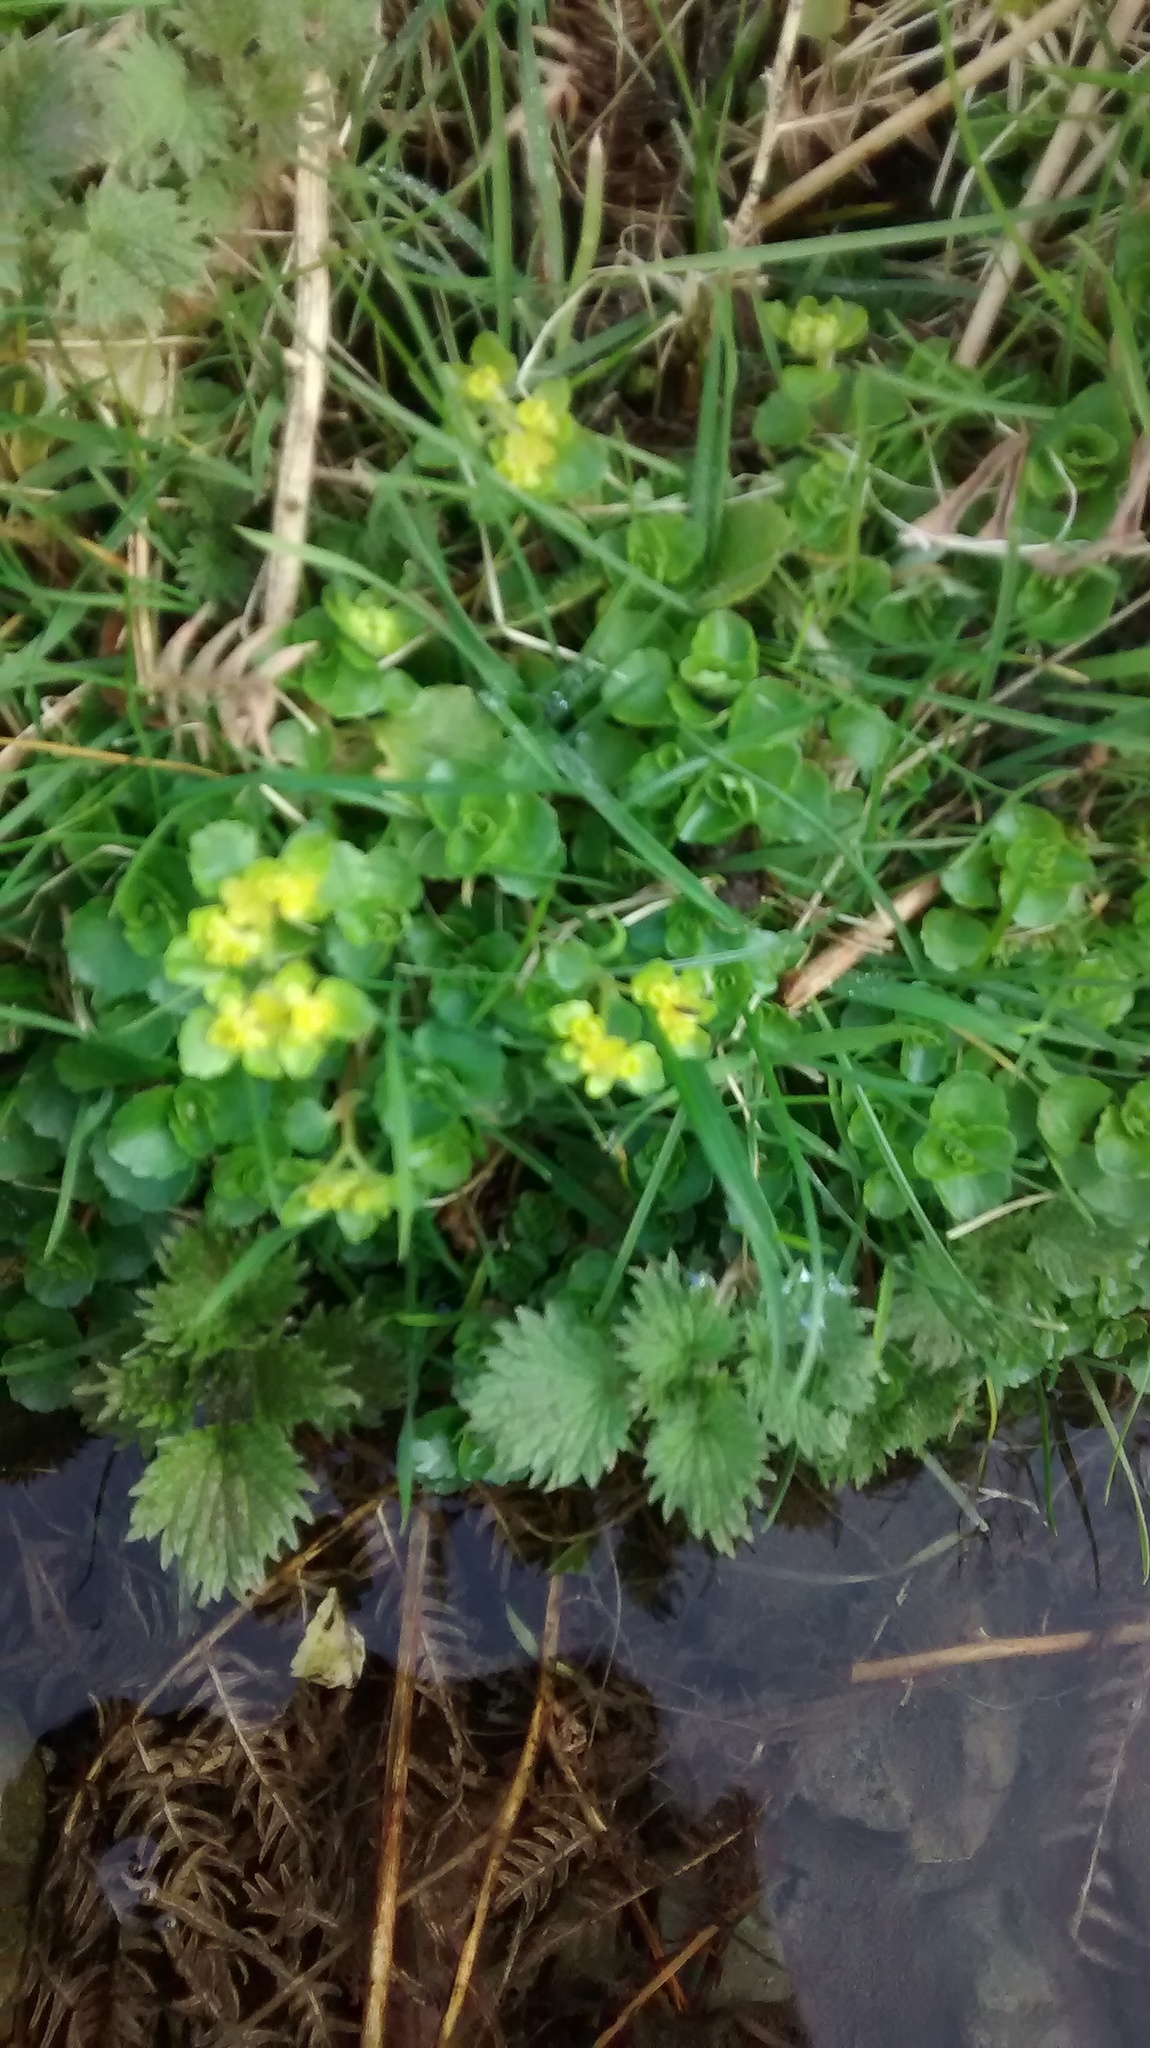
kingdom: Plantae
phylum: Tracheophyta
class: Magnoliopsida
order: Saxifragales
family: Saxifragaceae
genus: Chrysosplenium
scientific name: Chrysosplenium oppositifolium
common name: Opposite-leaved golden-saxifrage
